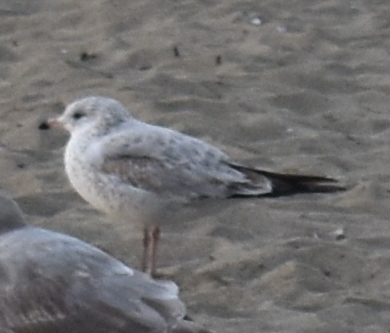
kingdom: Animalia
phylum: Chordata
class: Aves
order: Charadriiformes
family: Laridae
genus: Larus
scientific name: Larus delawarensis
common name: Ring-billed gull
